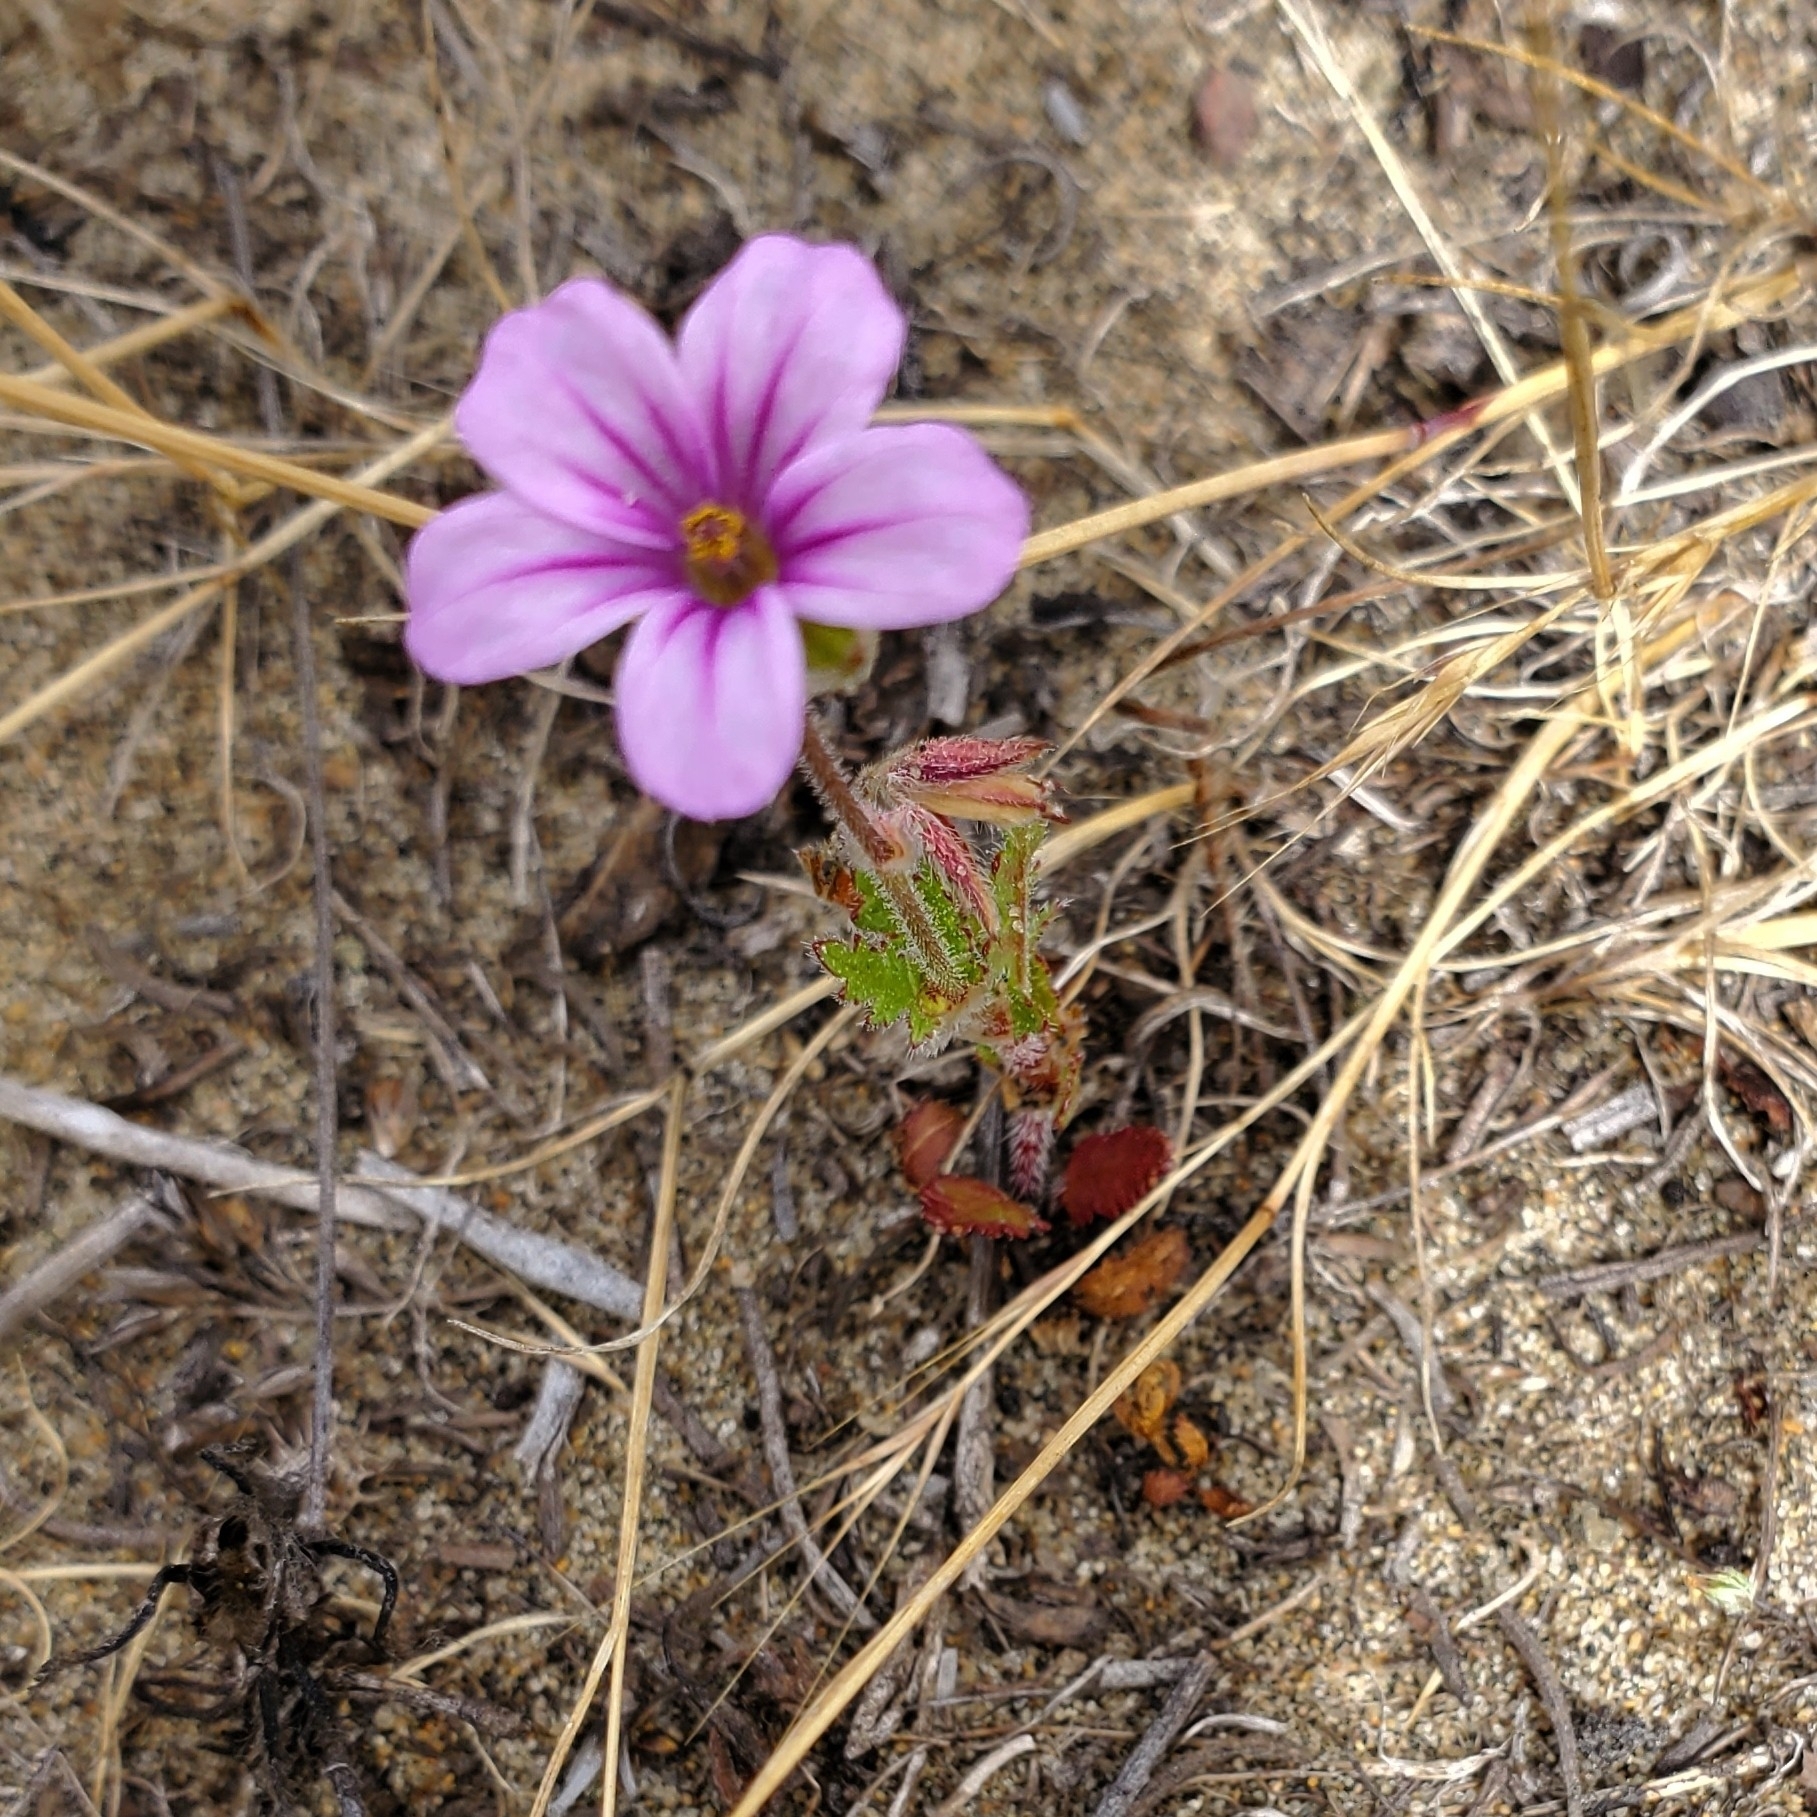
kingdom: Plantae
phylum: Tracheophyta
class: Magnoliopsida
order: Geraniales
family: Geraniaceae
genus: Erodium
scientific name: Erodium botrys
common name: Mediterranean stork's-bill
